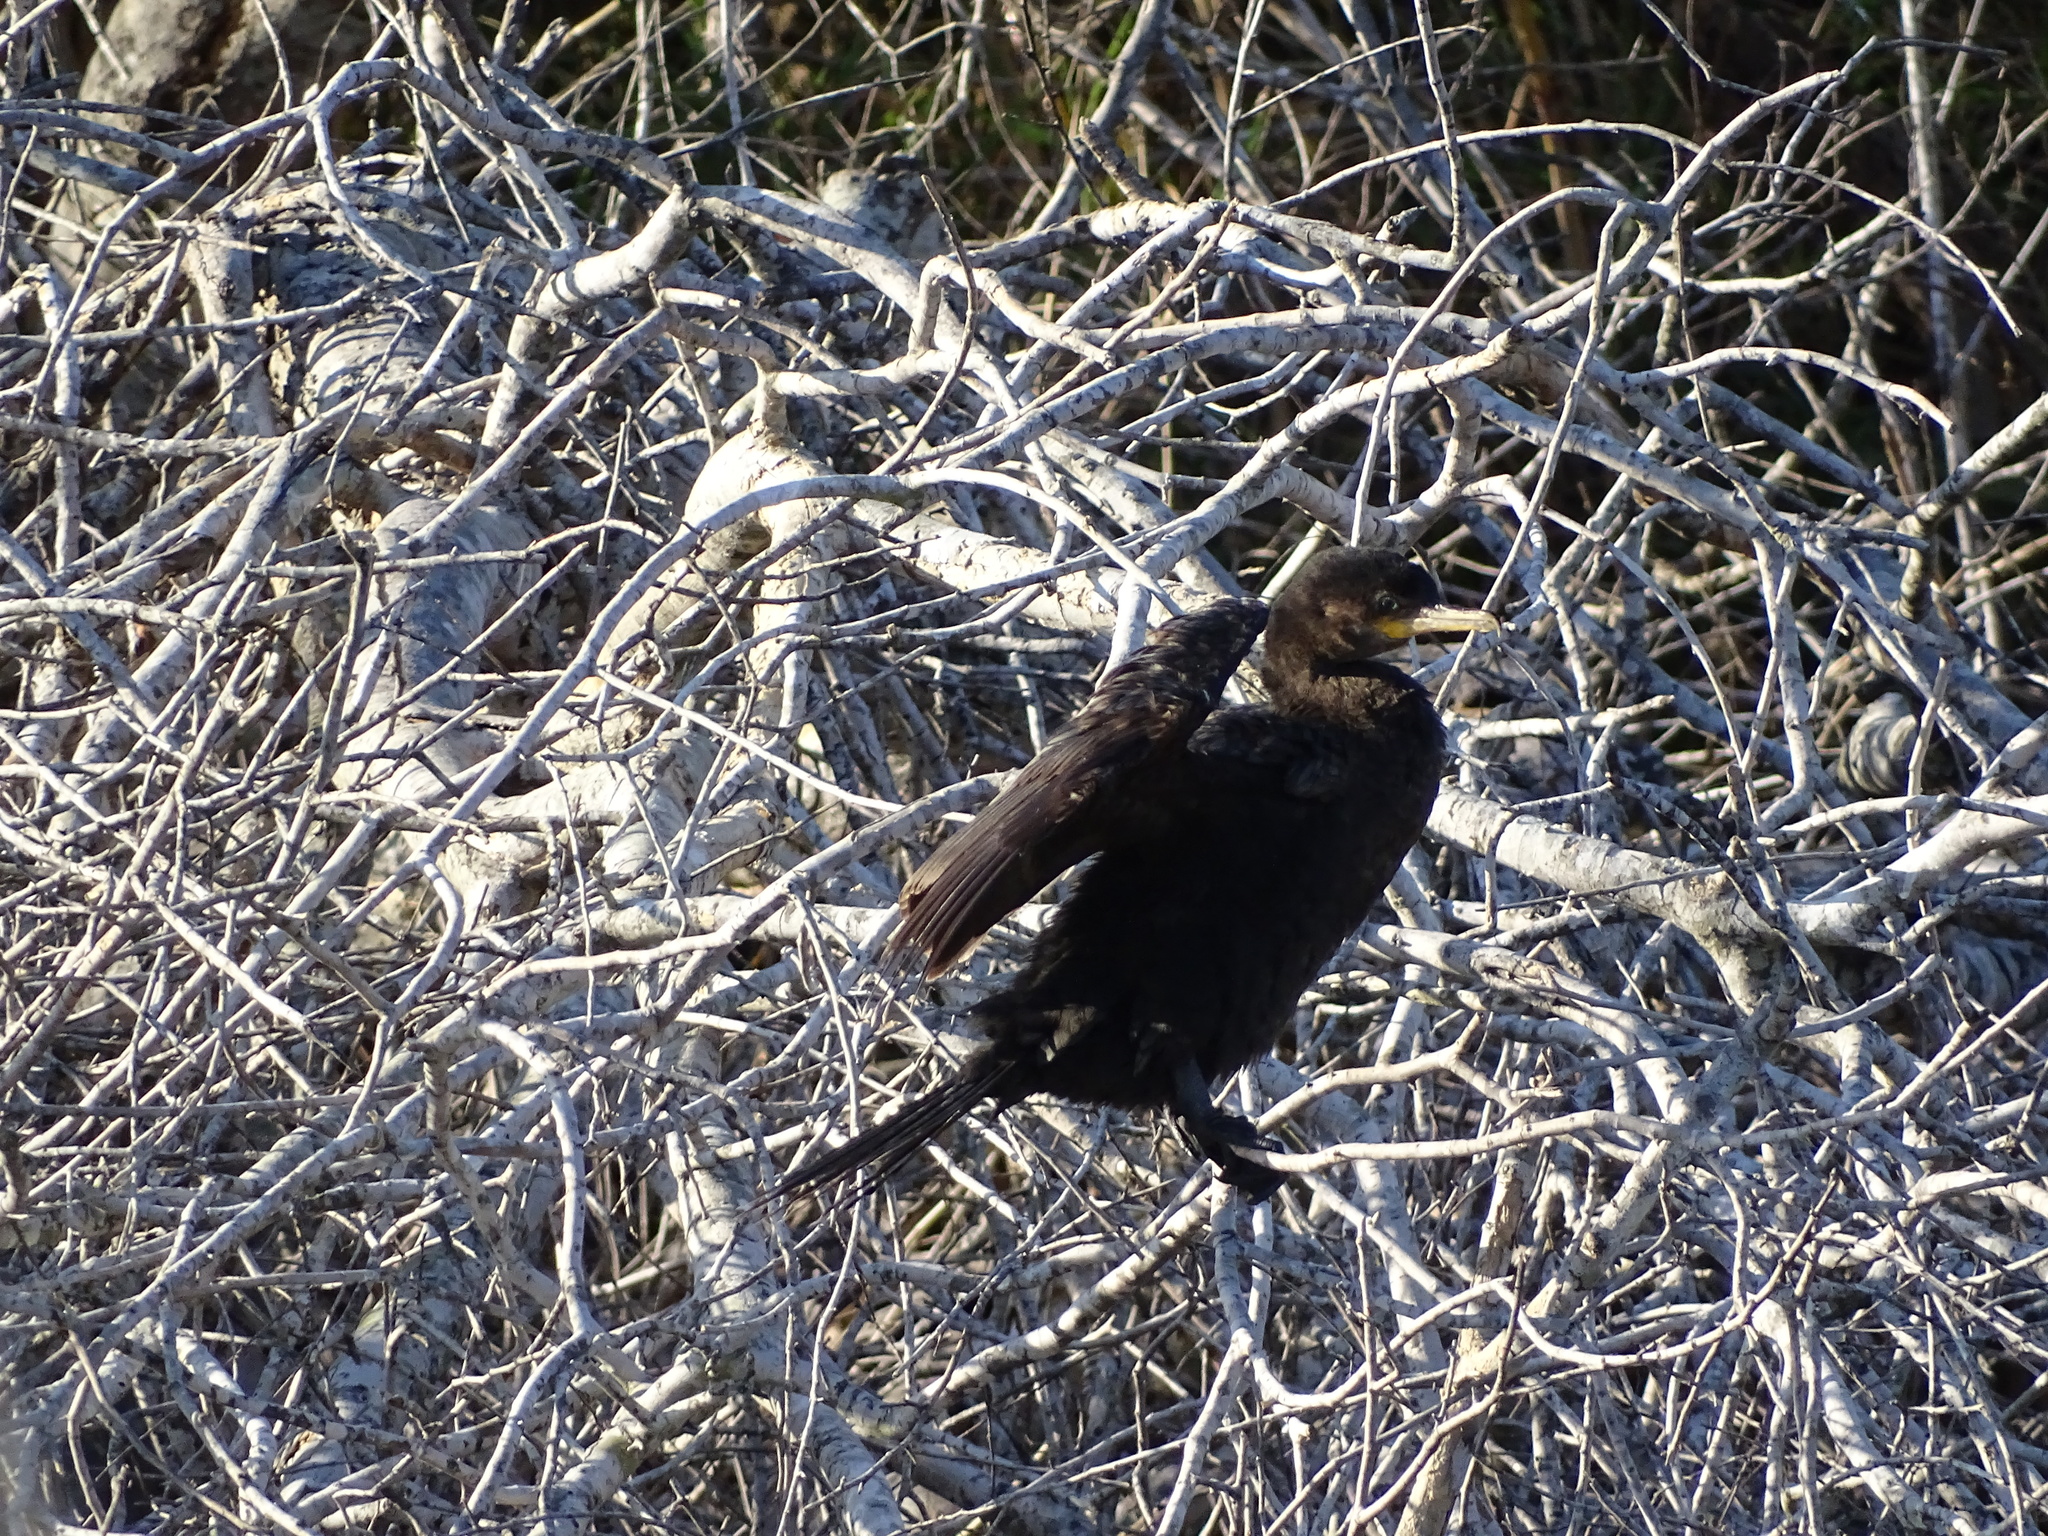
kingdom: Animalia
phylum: Chordata
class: Aves
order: Suliformes
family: Phalacrocoracidae
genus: Phalacrocorax
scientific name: Phalacrocorax brasilianus
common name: Neotropic cormorant
